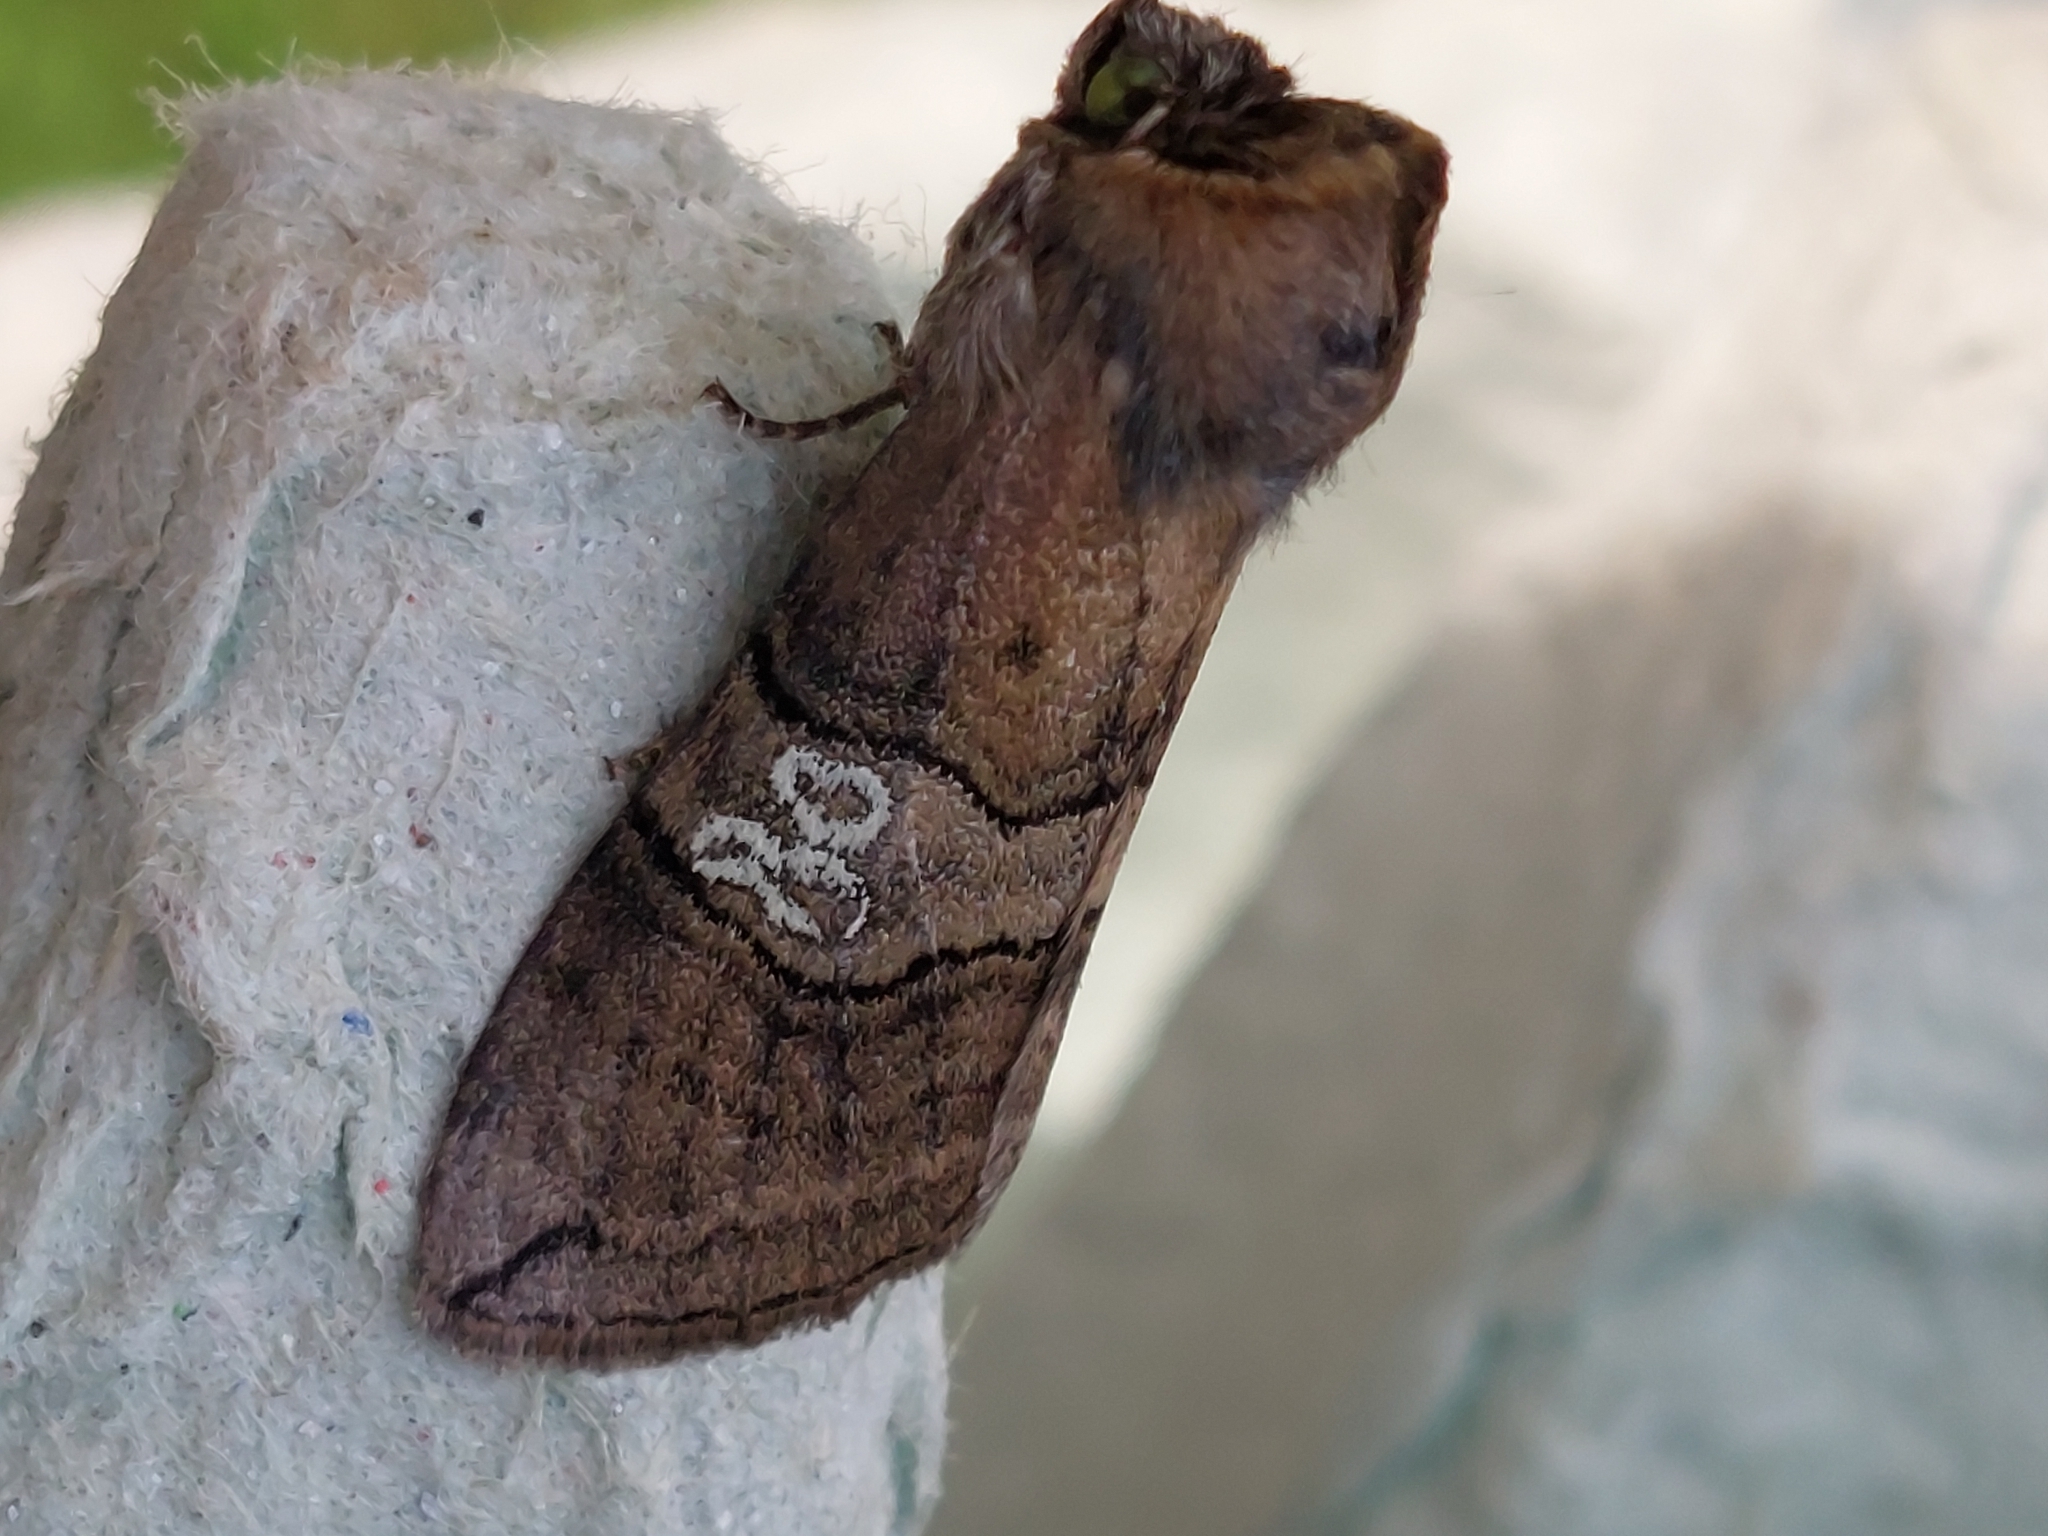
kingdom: Animalia
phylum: Arthropoda
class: Insecta
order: Lepidoptera
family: Drepanidae
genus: Tethea
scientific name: Tethea ocularis
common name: Figure of eighty
